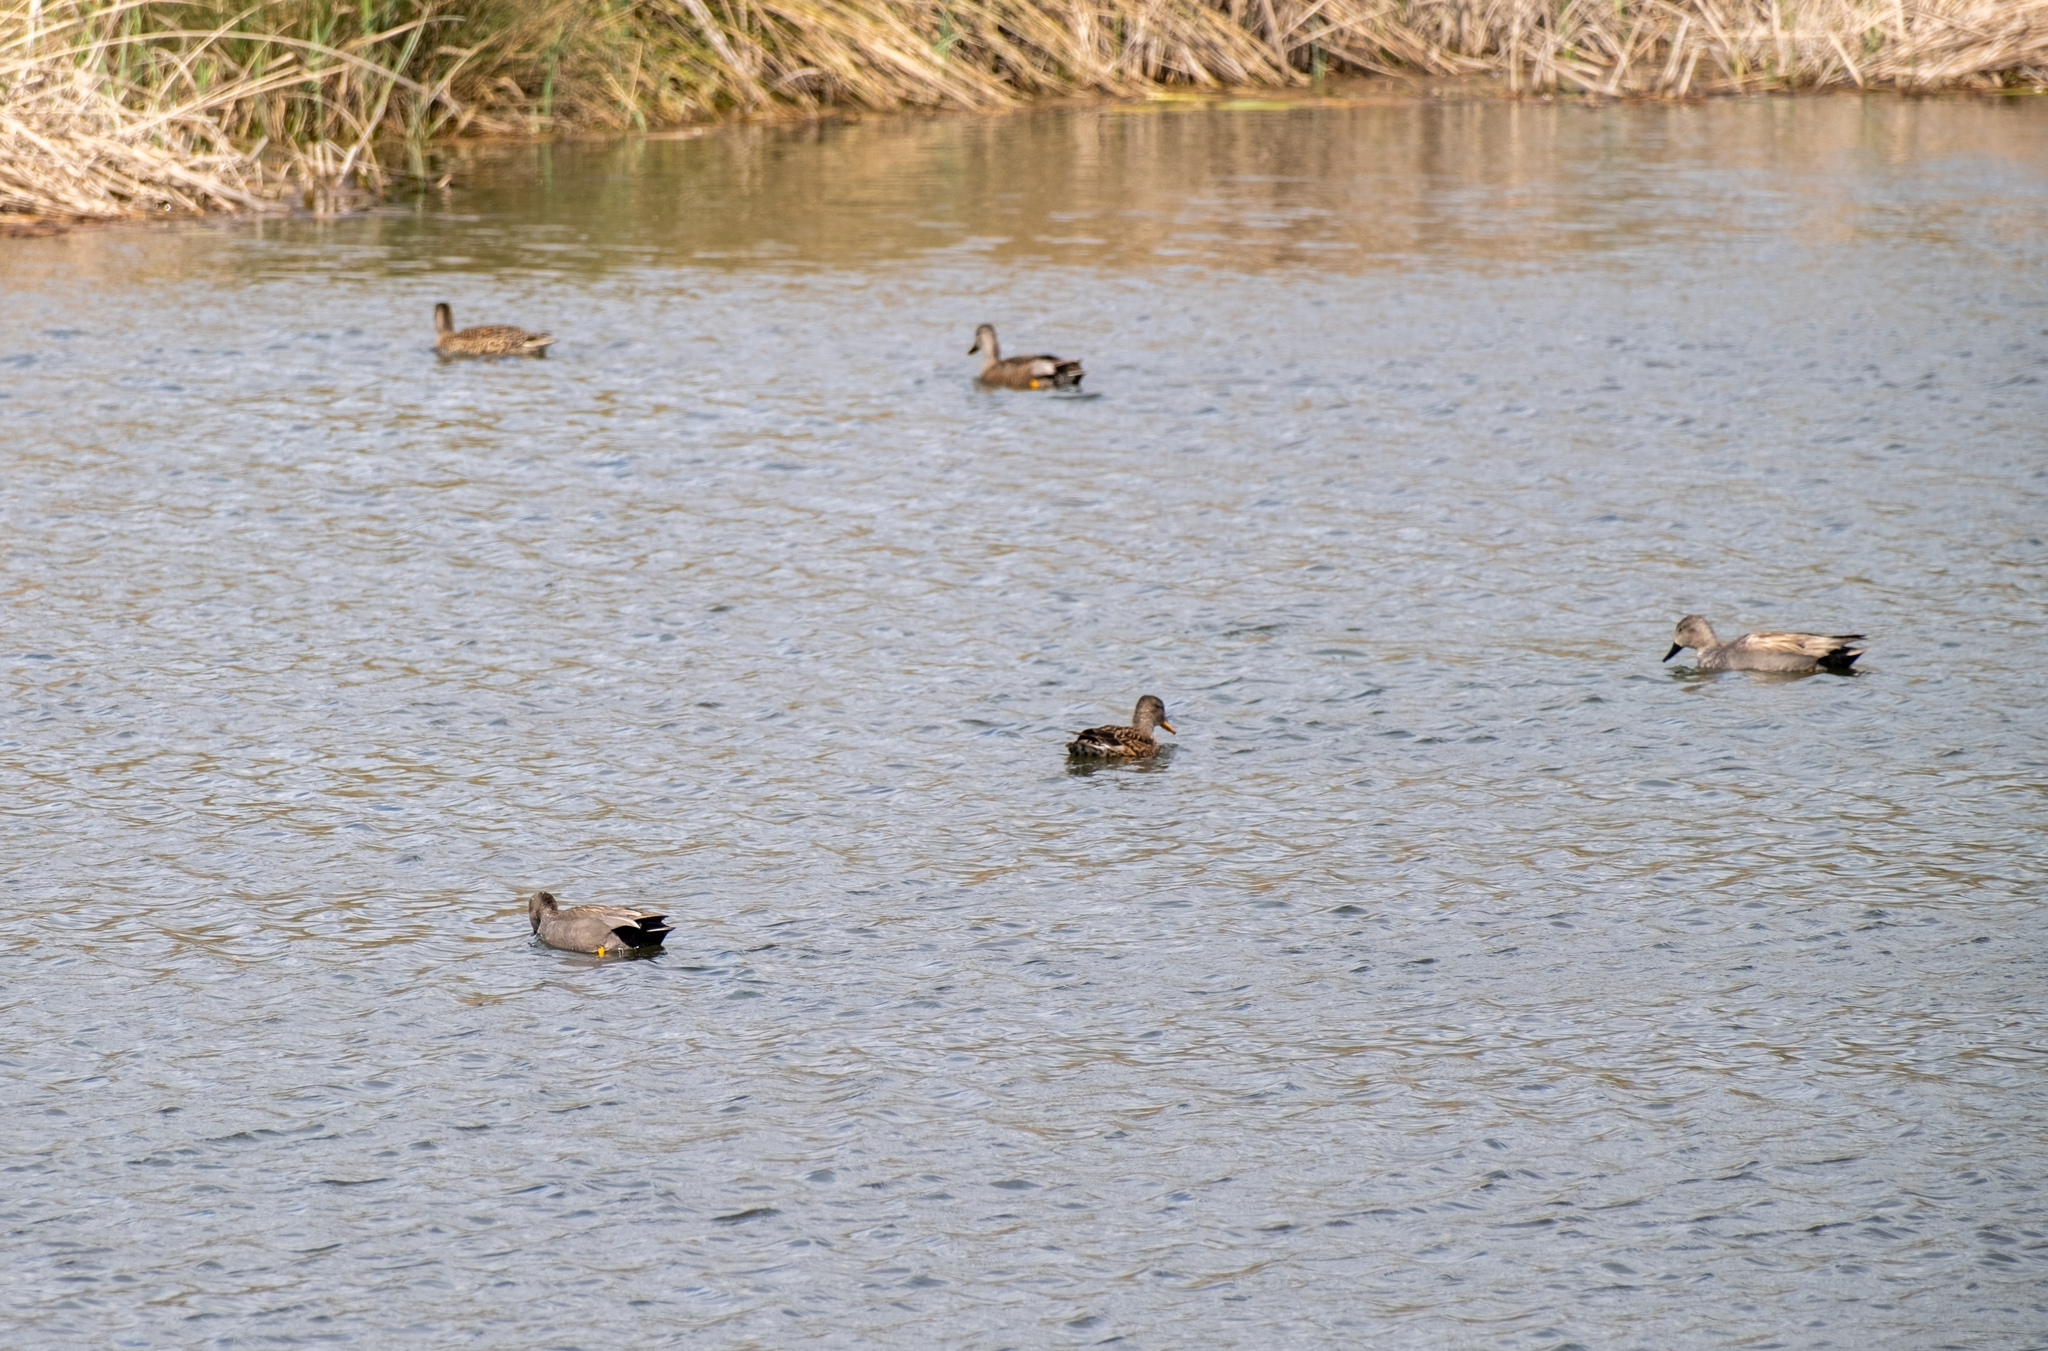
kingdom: Animalia
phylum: Chordata
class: Aves
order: Anseriformes
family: Anatidae
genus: Mareca
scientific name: Mareca strepera
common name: Gadwall
